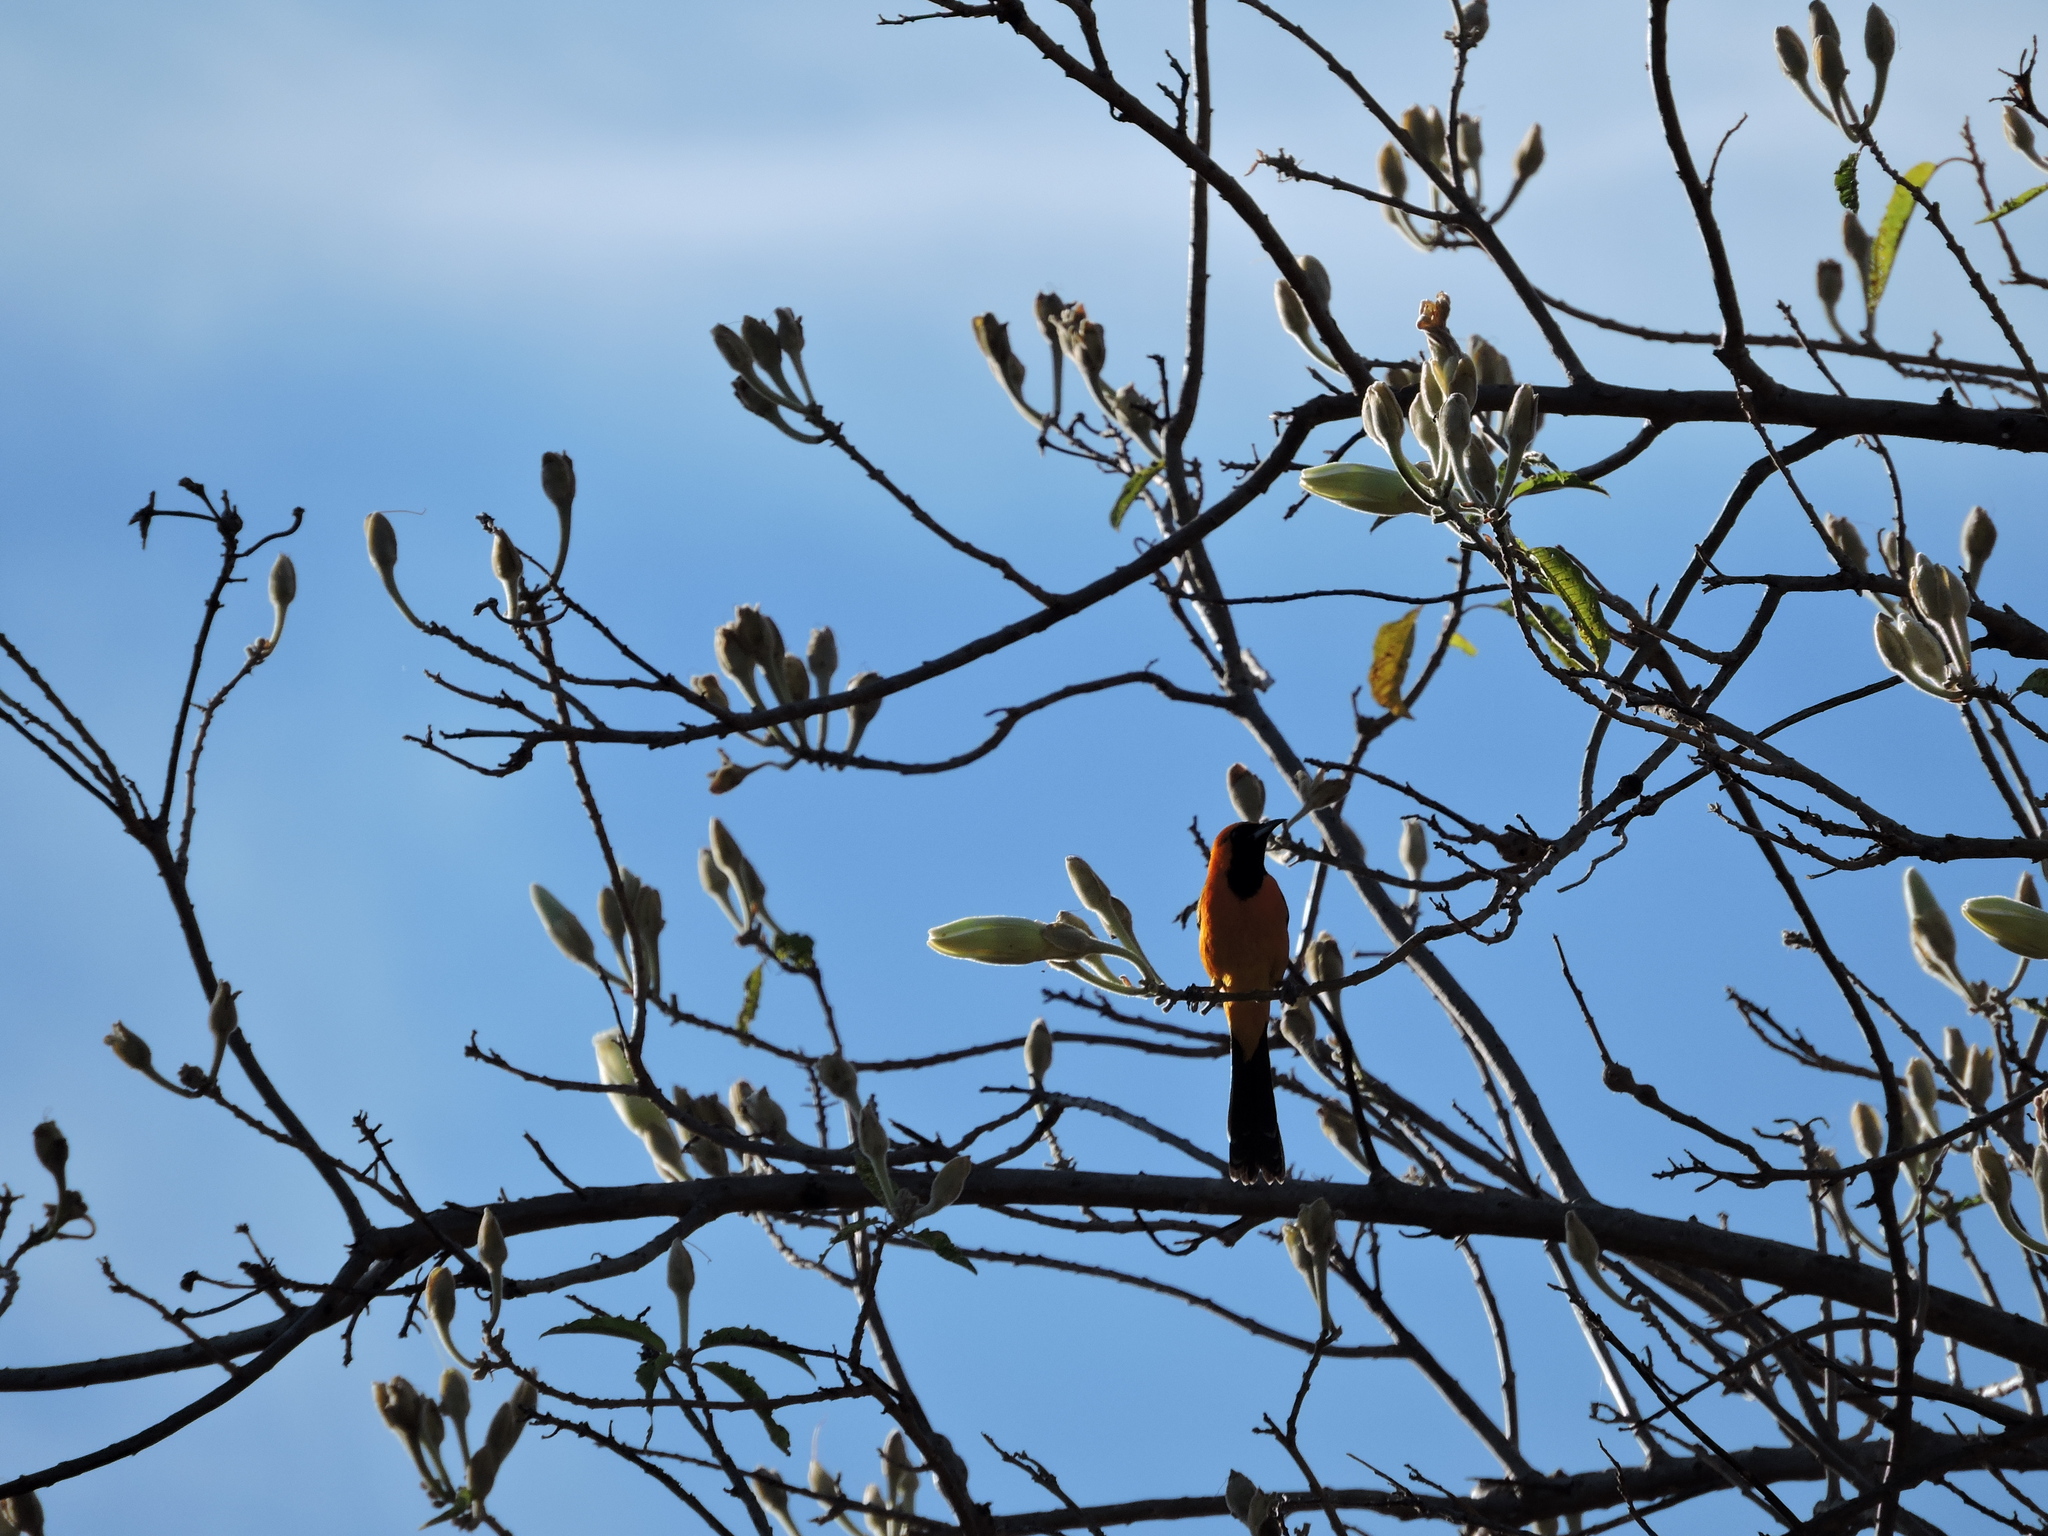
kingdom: Animalia
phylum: Chordata
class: Aves
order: Passeriformes
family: Icteridae
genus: Icterus
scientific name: Icterus cucullatus
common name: Hooded oriole
